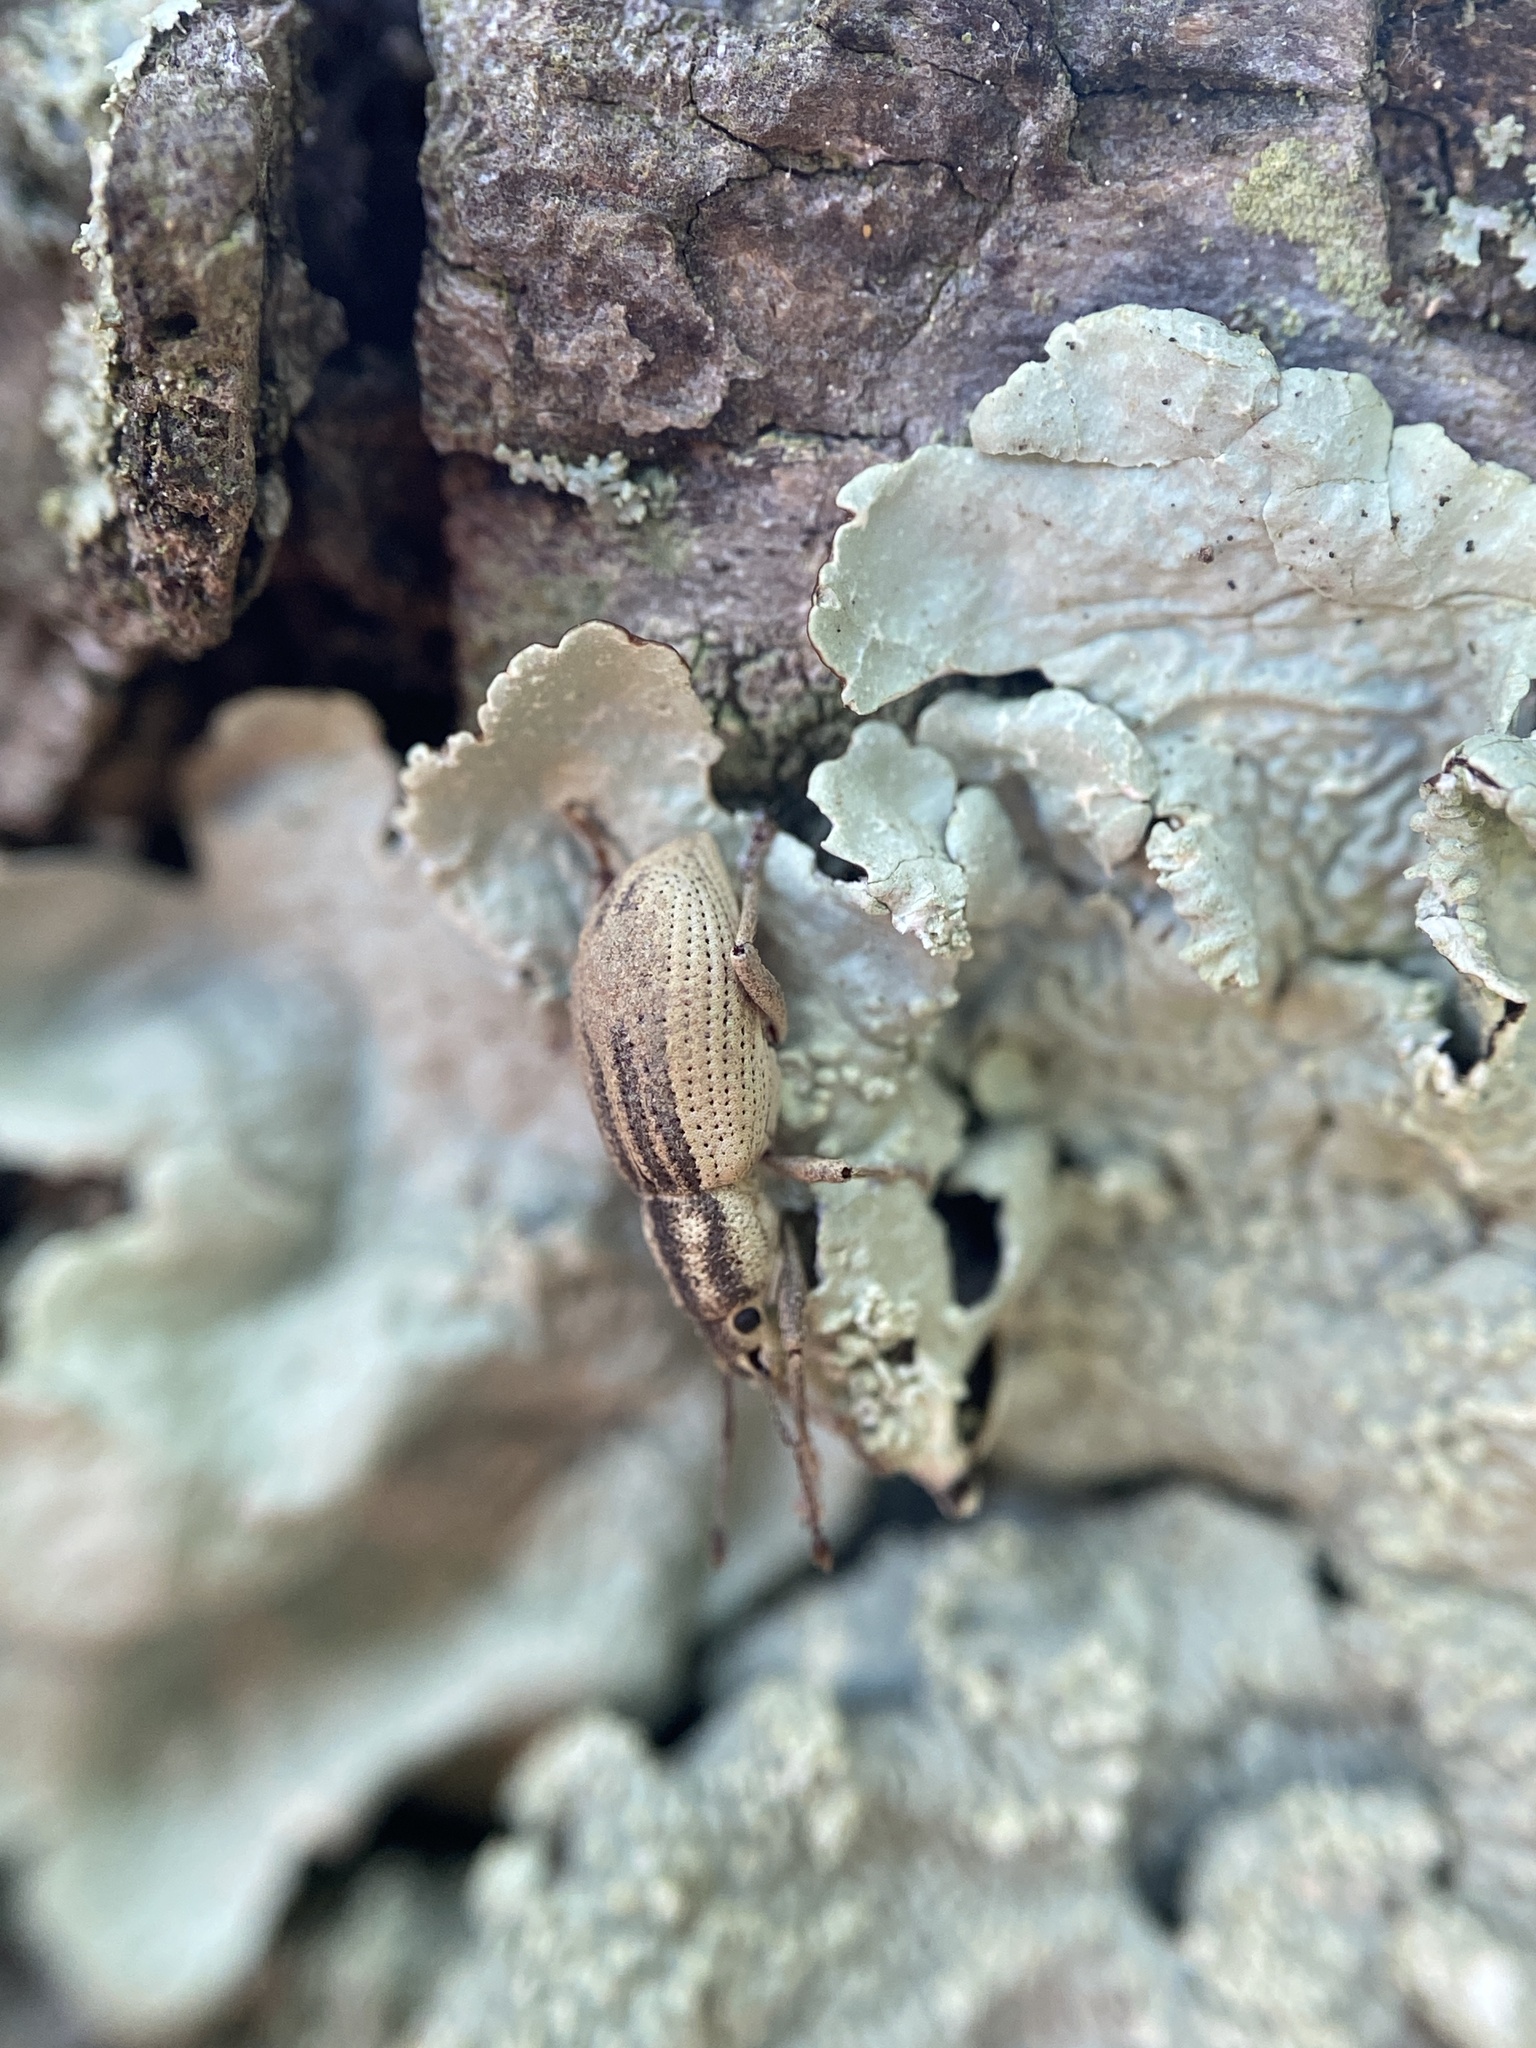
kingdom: Animalia
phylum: Arthropoda
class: Insecta
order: Coleoptera
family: Curculionidae
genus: Aphrastus
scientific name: Aphrastus taeniatus
